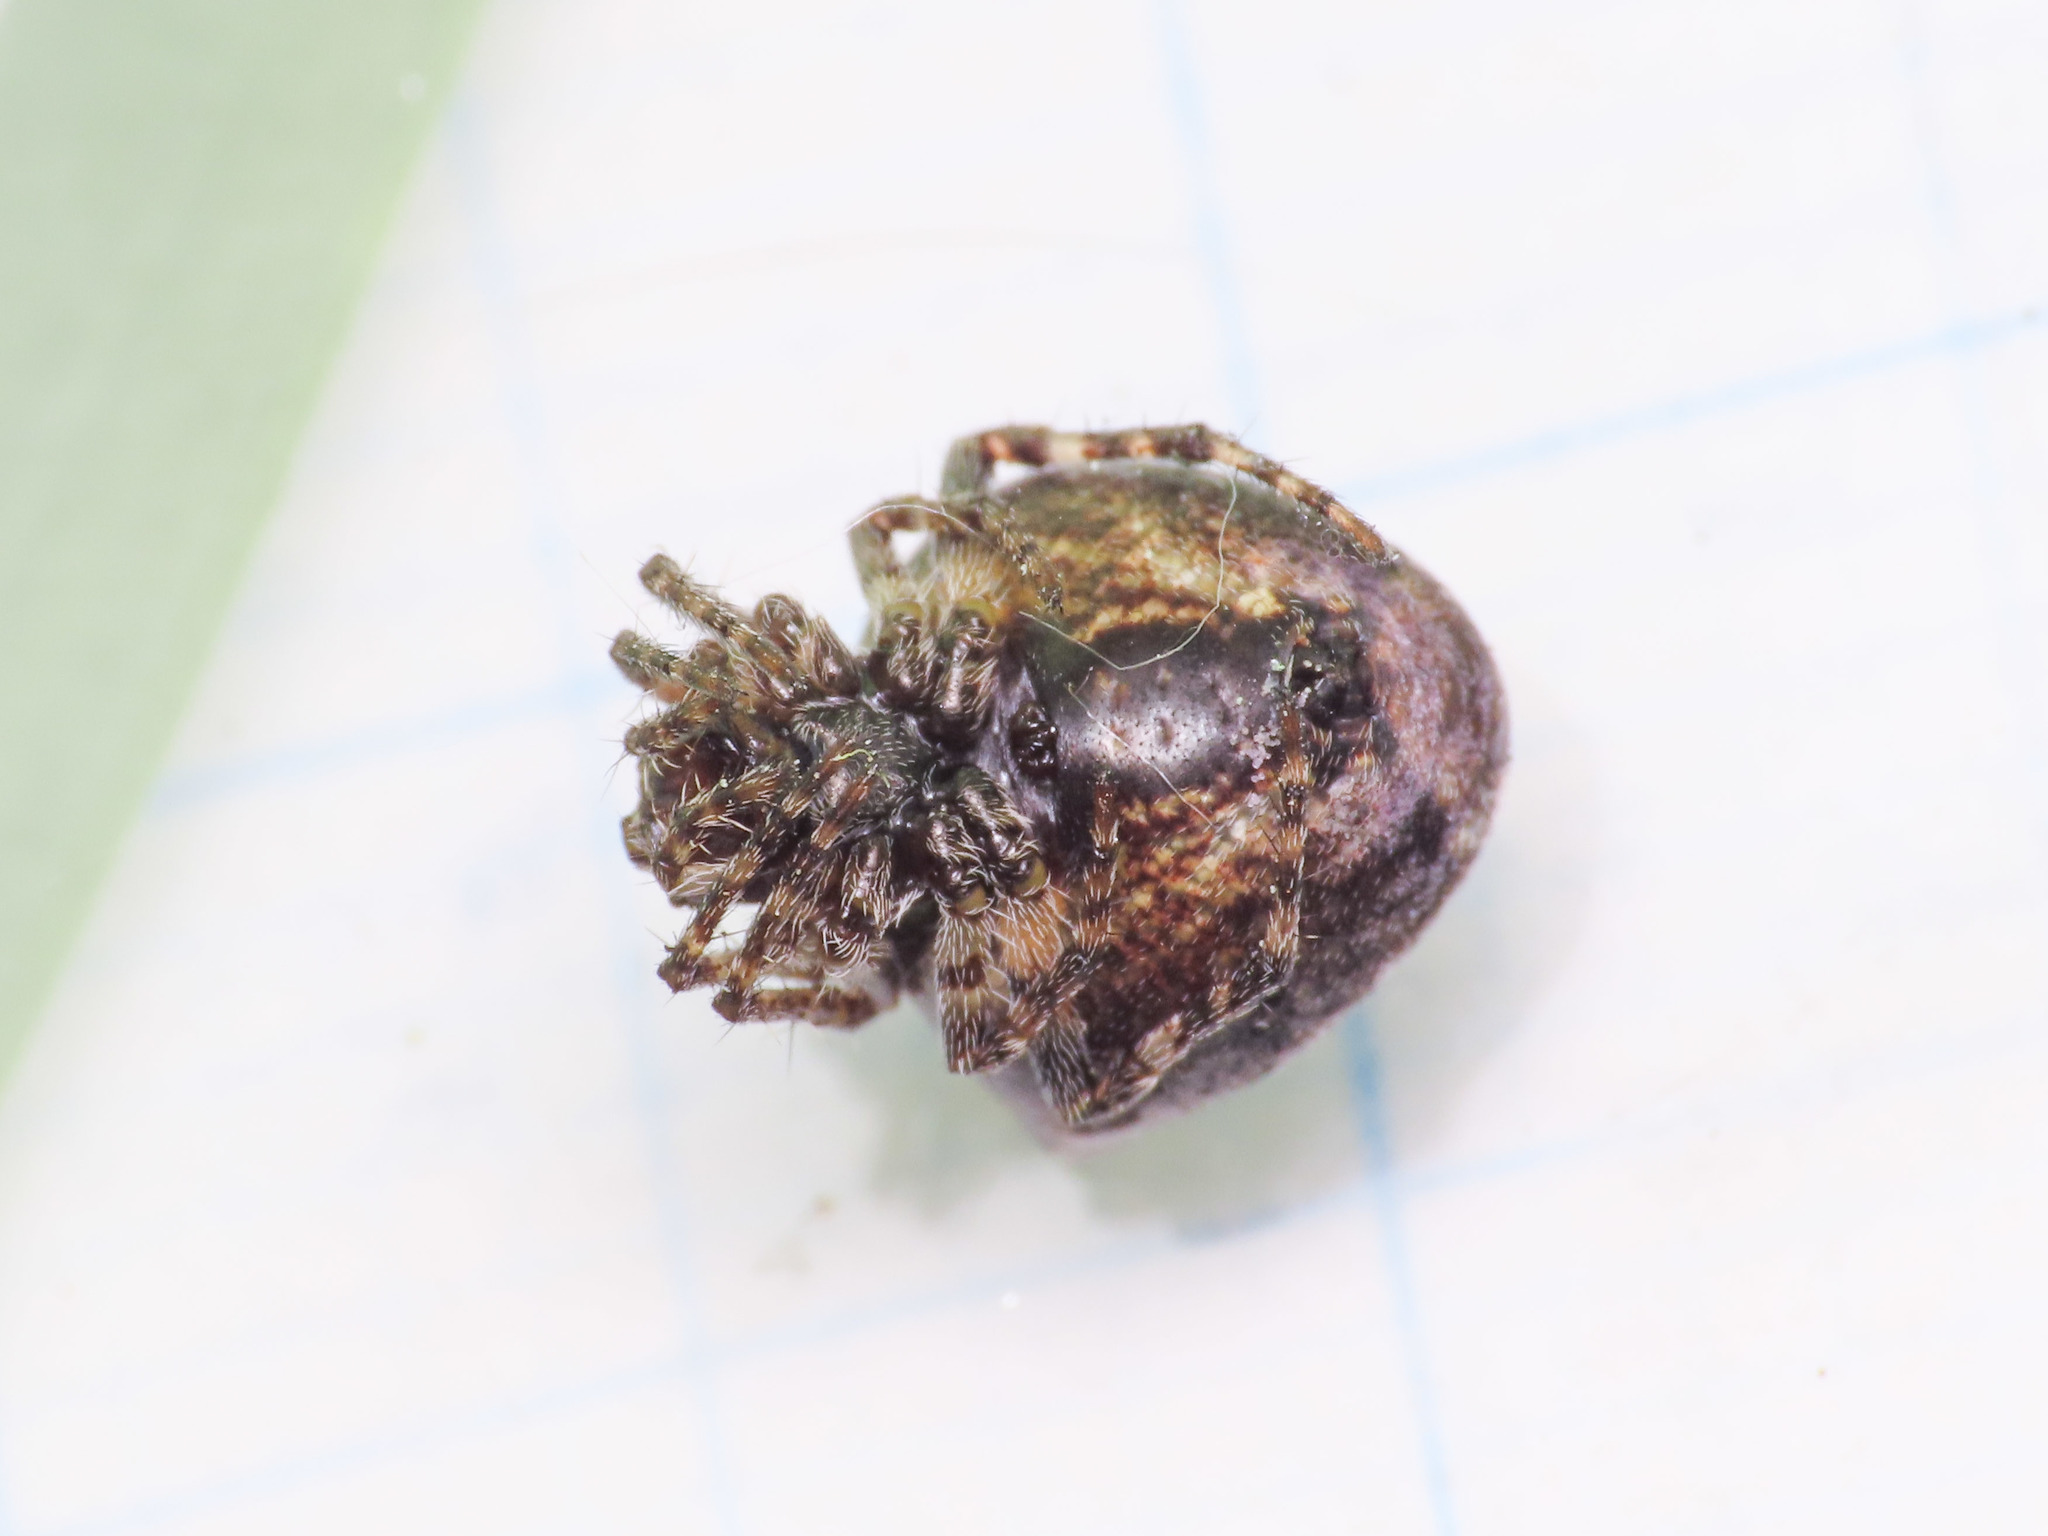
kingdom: Animalia
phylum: Arthropoda
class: Arachnida
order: Araneae
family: Araneidae
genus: Gibbaranea
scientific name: Gibbaranea bituberculata
